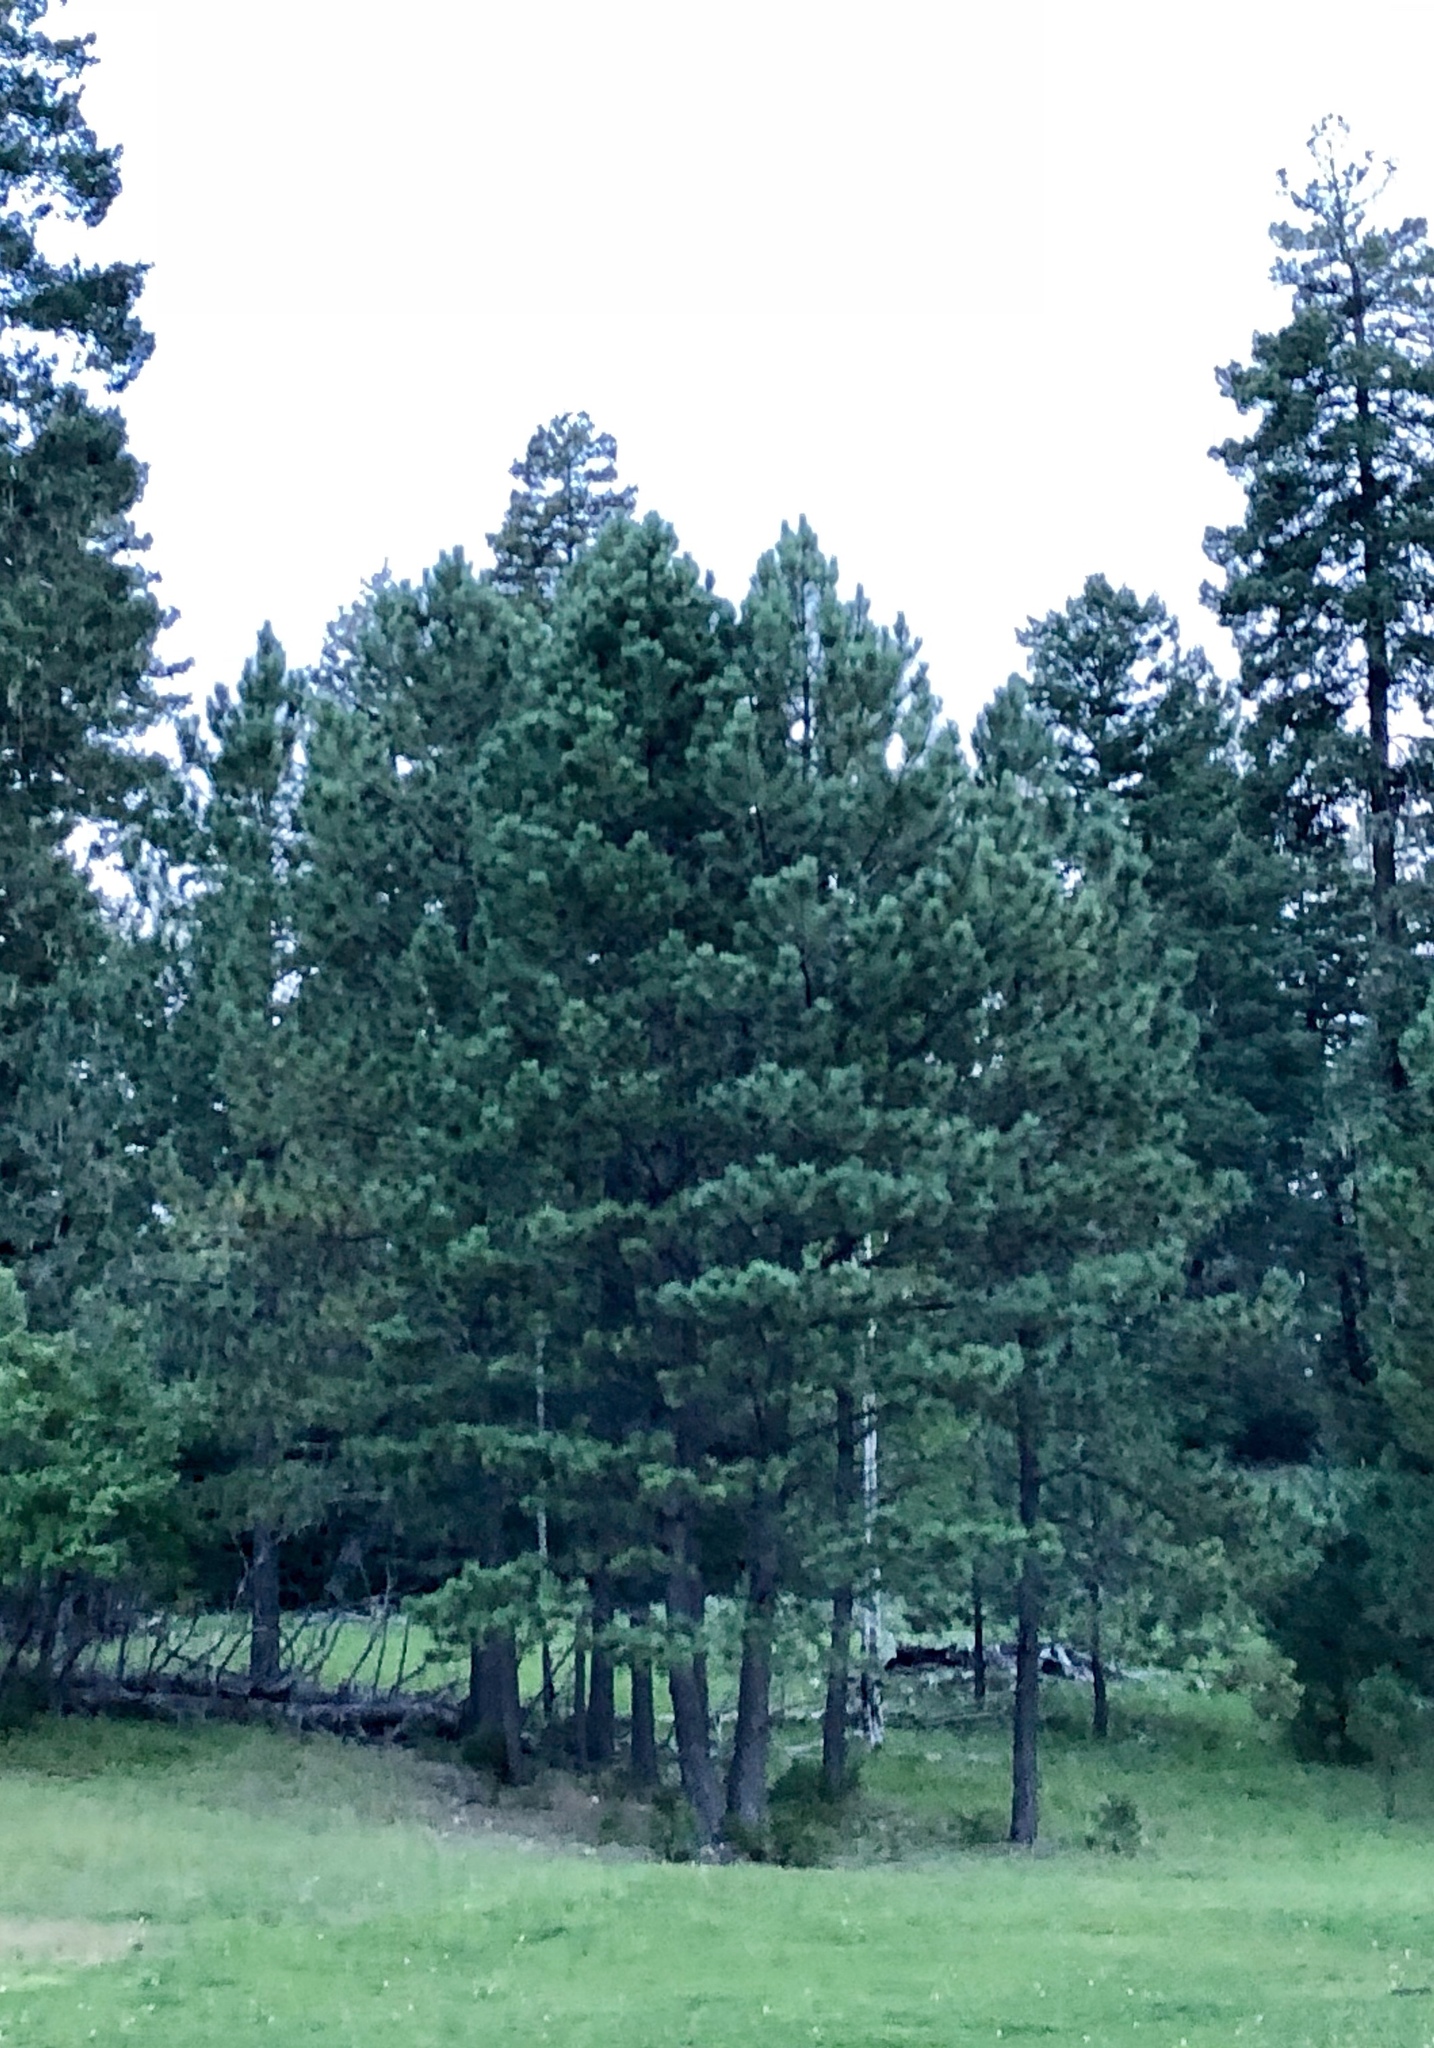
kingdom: Plantae
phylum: Tracheophyta
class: Pinopsida
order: Pinales
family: Pinaceae
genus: Pinus
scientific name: Pinus ponderosa
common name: Western yellow-pine
